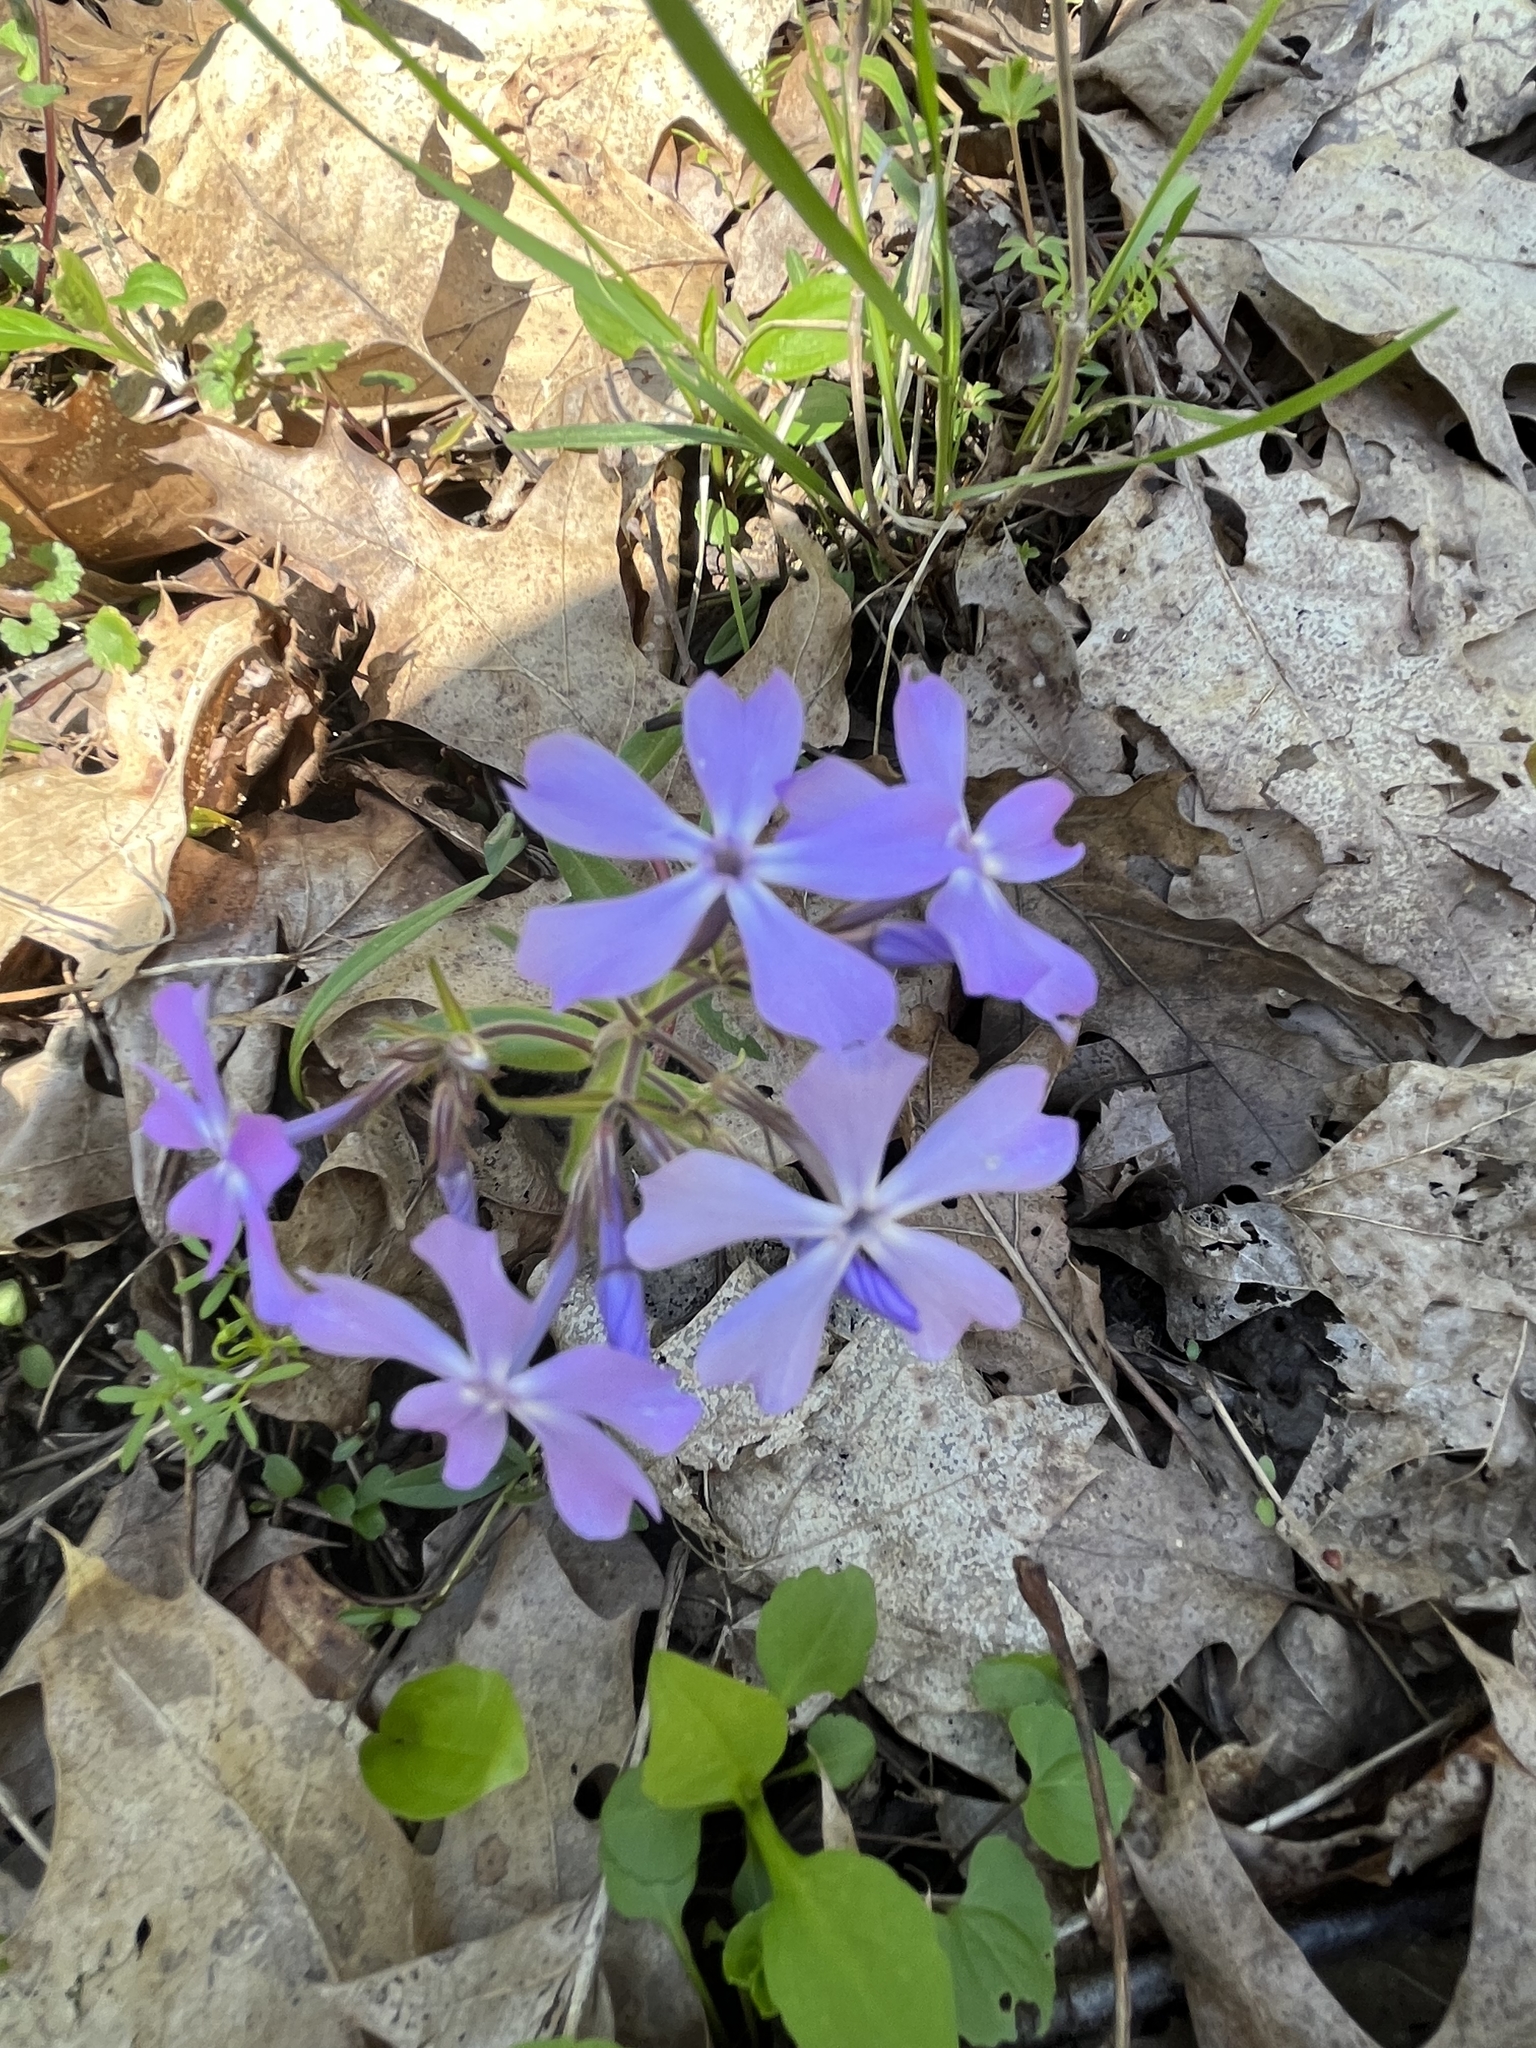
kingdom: Plantae
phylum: Tracheophyta
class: Magnoliopsida
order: Ericales
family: Polemoniaceae
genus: Phlox
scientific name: Phlox divaricata
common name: Blue phlox
